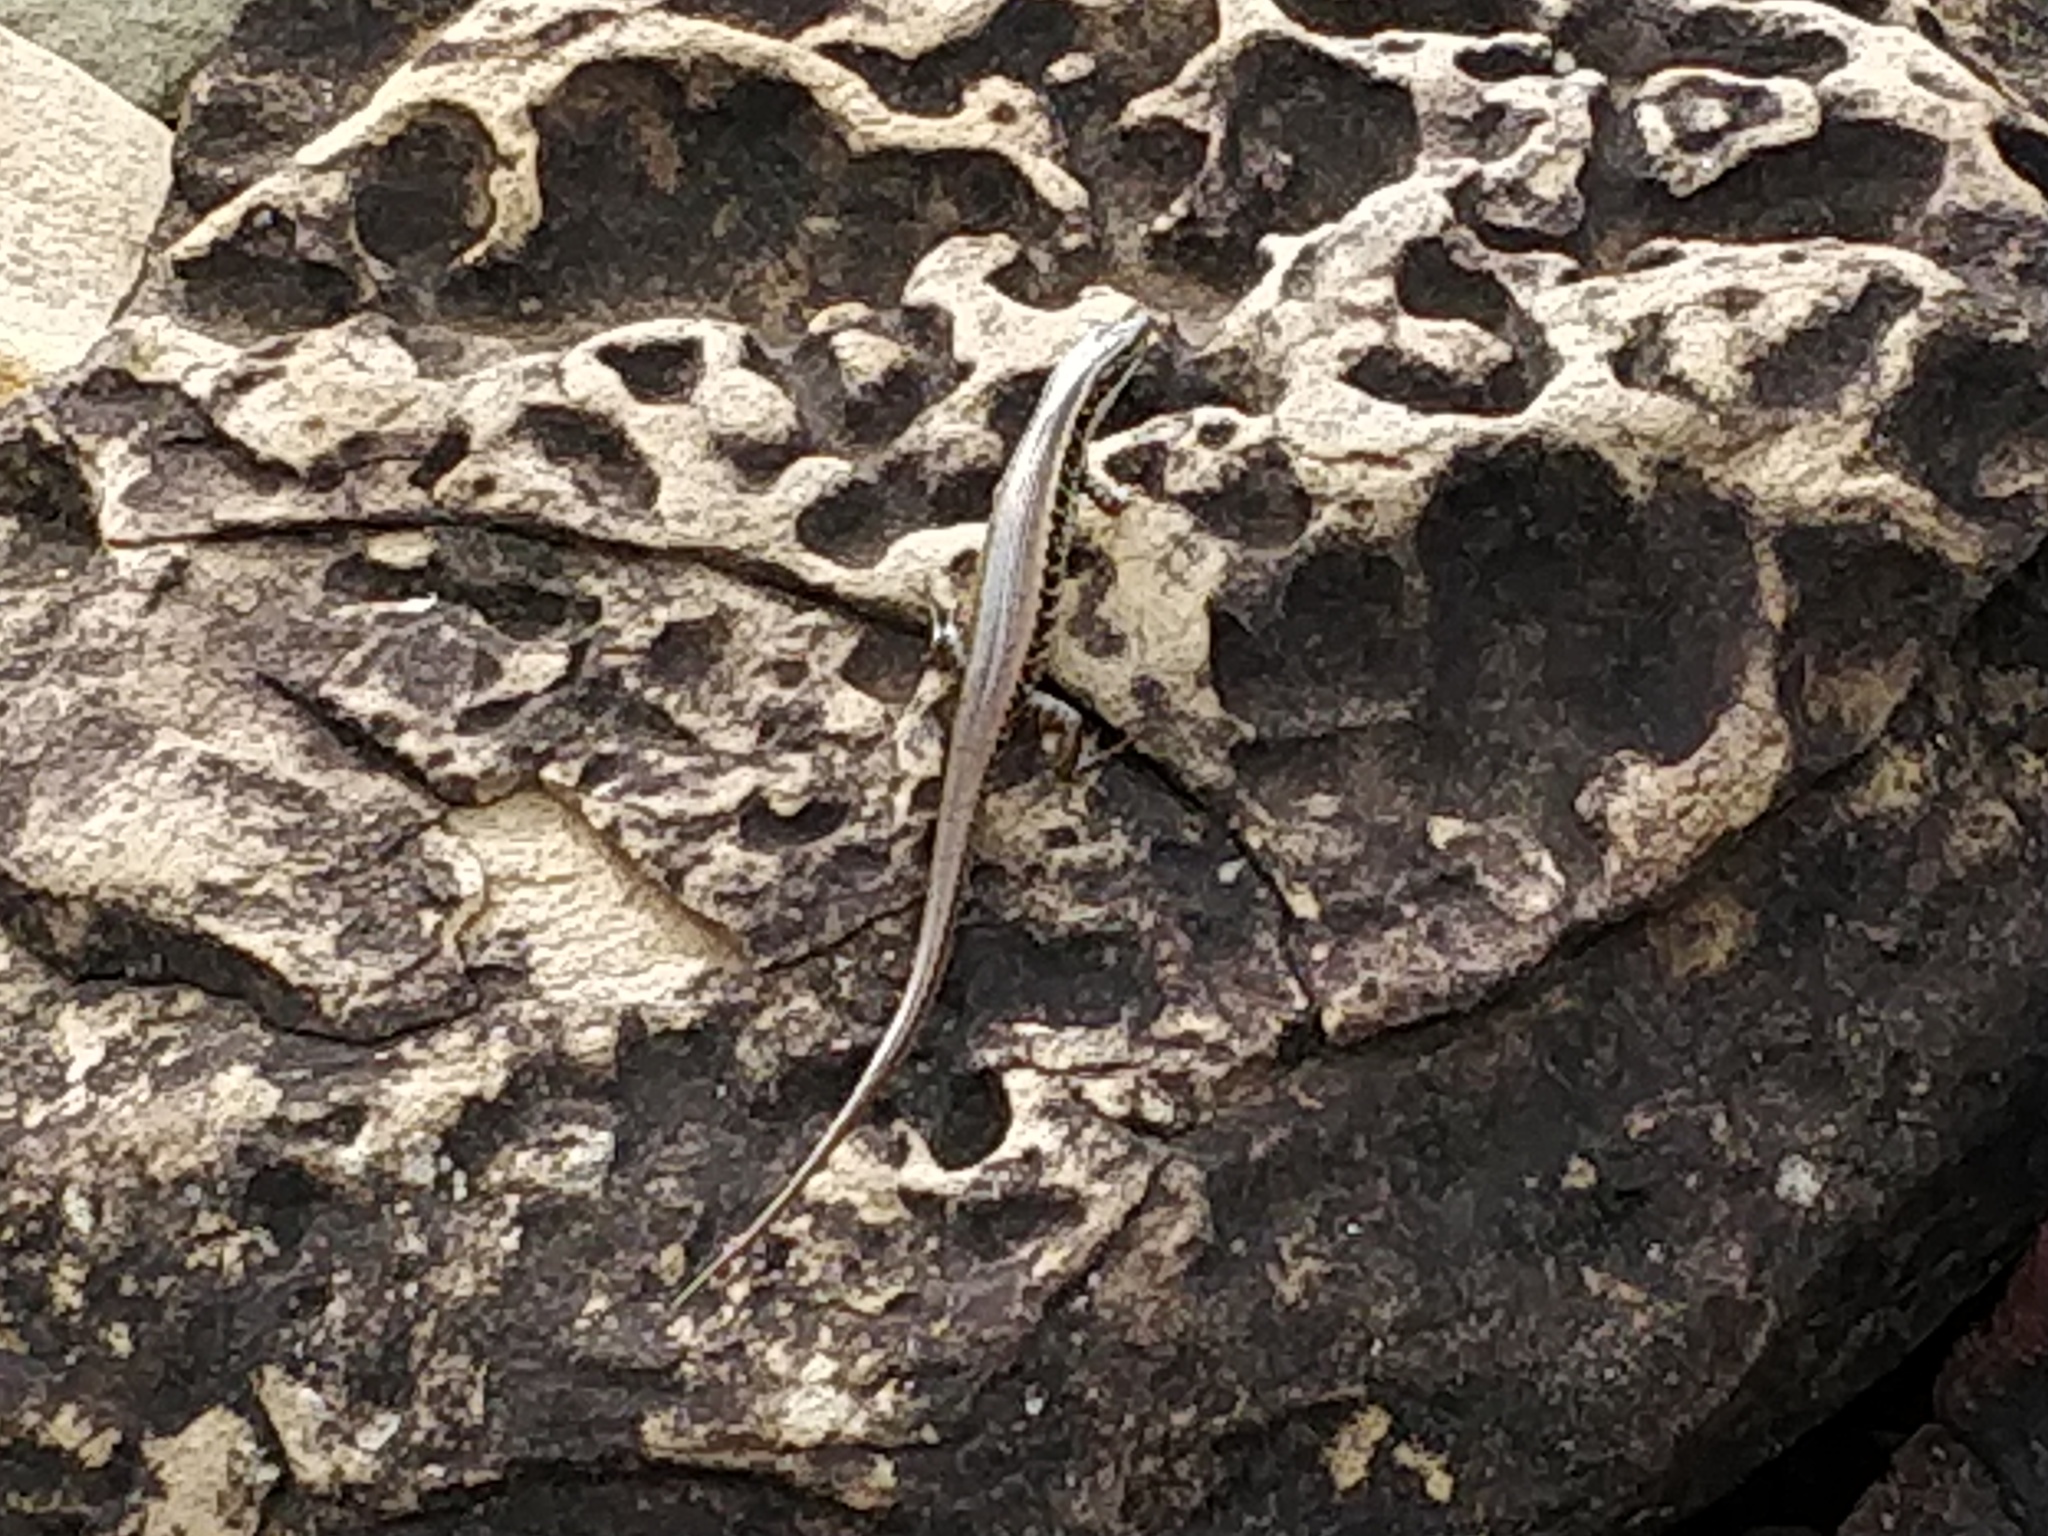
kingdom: Animalia
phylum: Chordata
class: Squamata
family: Scincidae
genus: Eulamprus
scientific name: Eulamprus quoyii
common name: Eastern water skink
